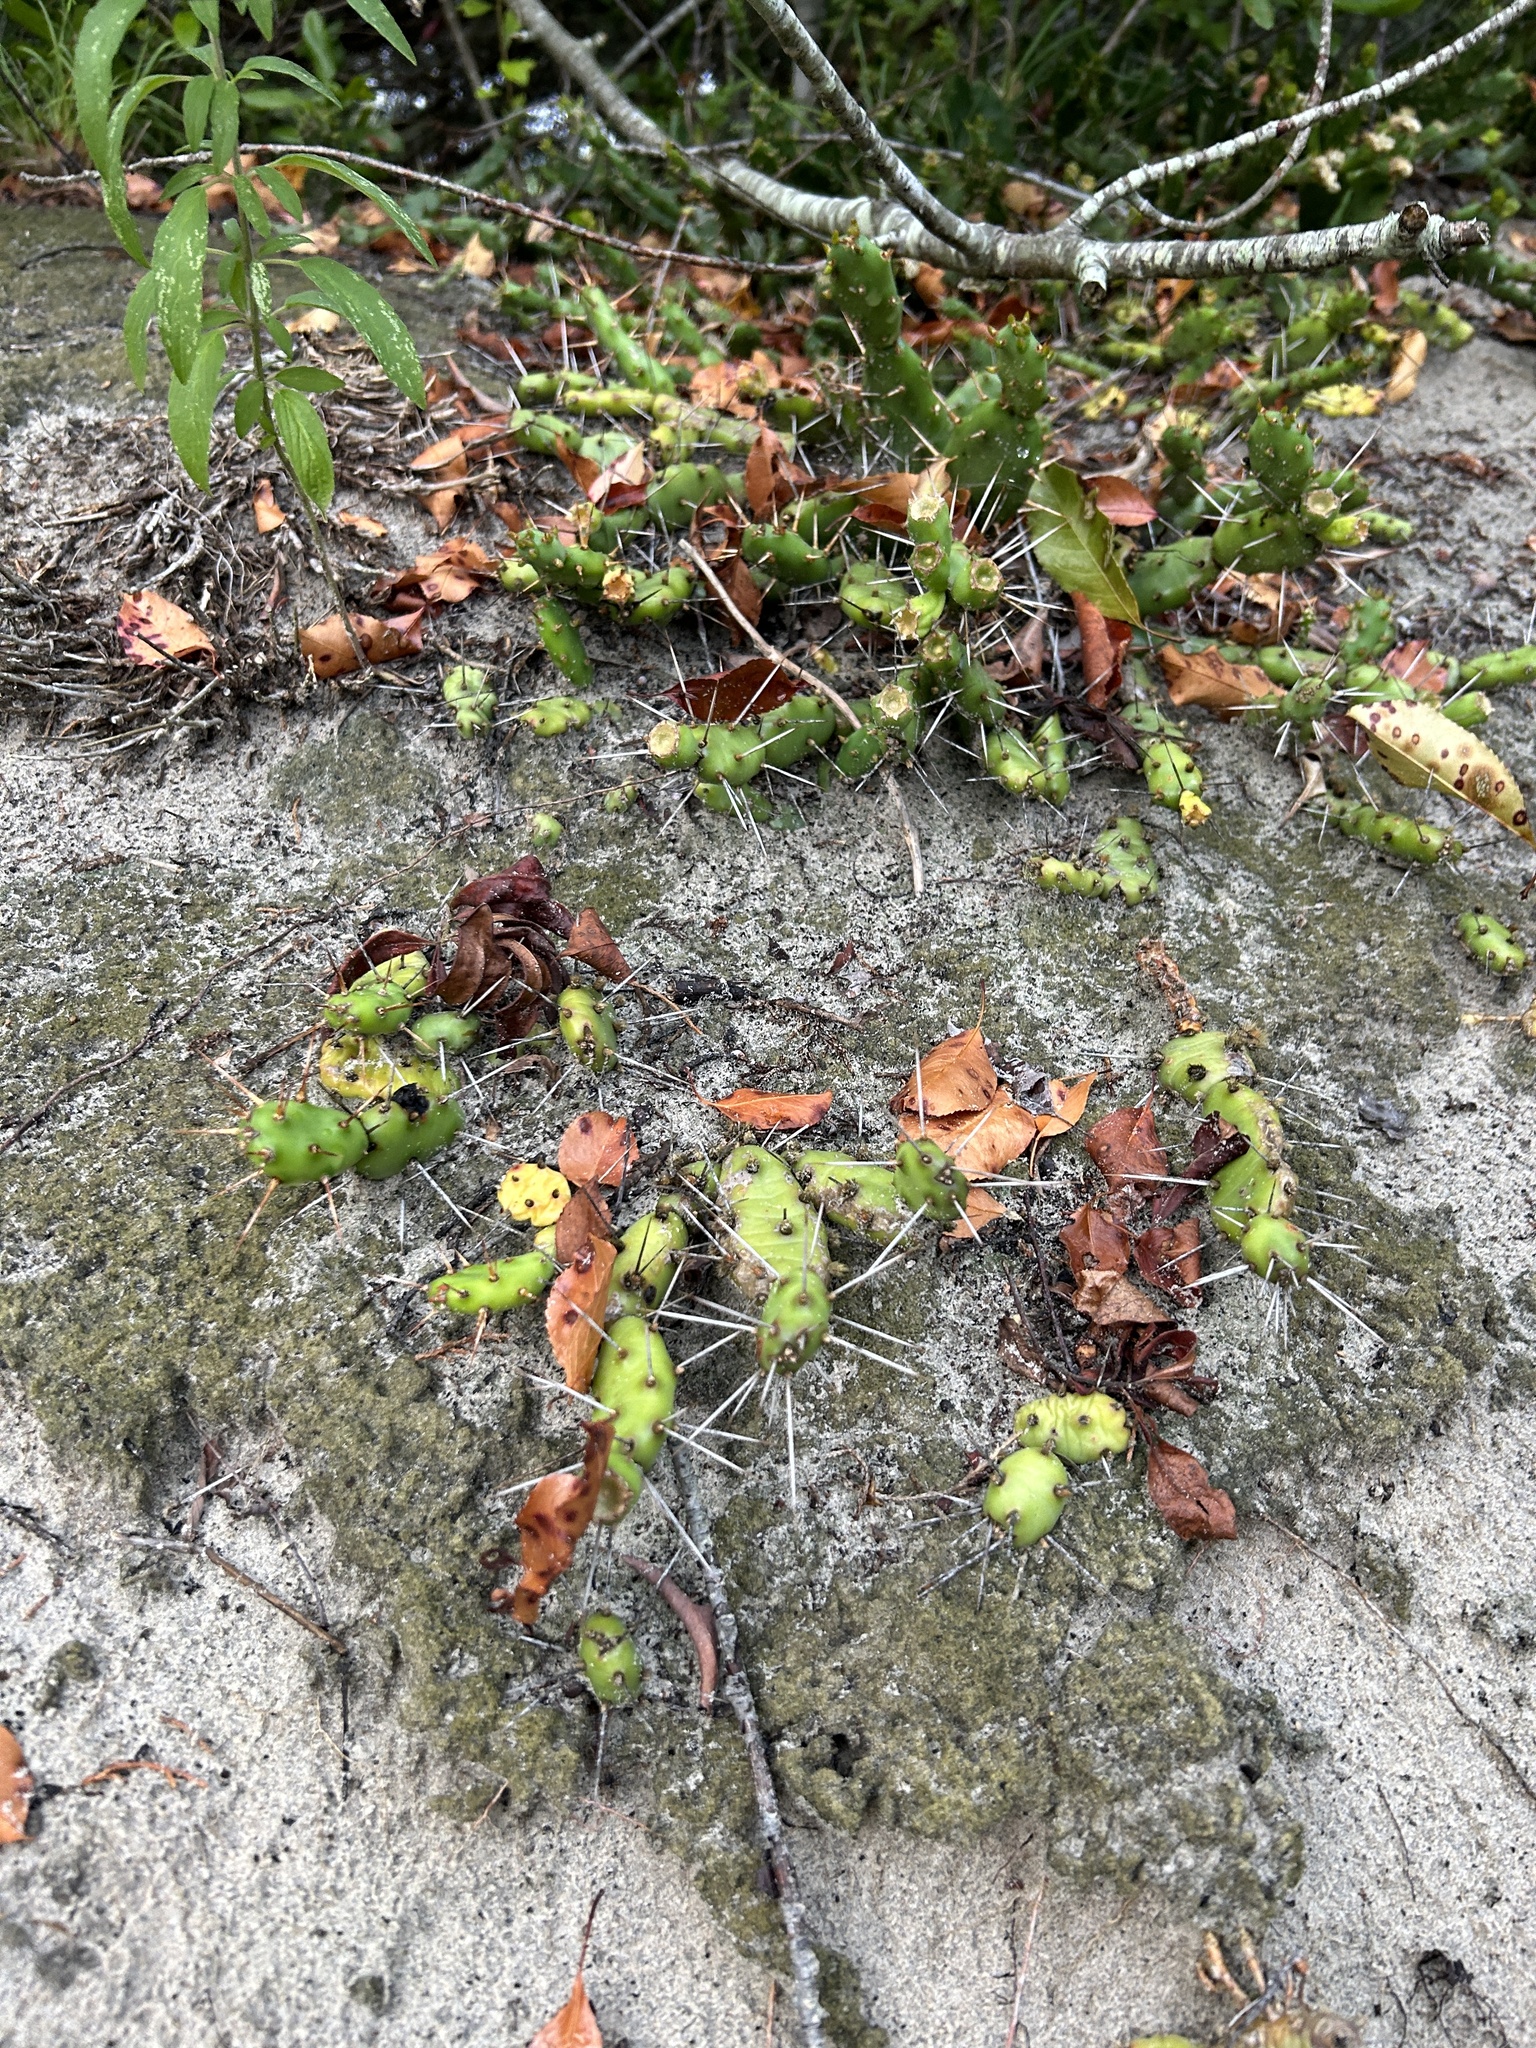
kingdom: Plantae
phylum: Tracheophyta
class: Magnoliopsida
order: Caryophyllales
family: Cactaceae
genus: Opuntia
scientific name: Opuntia drummondii
